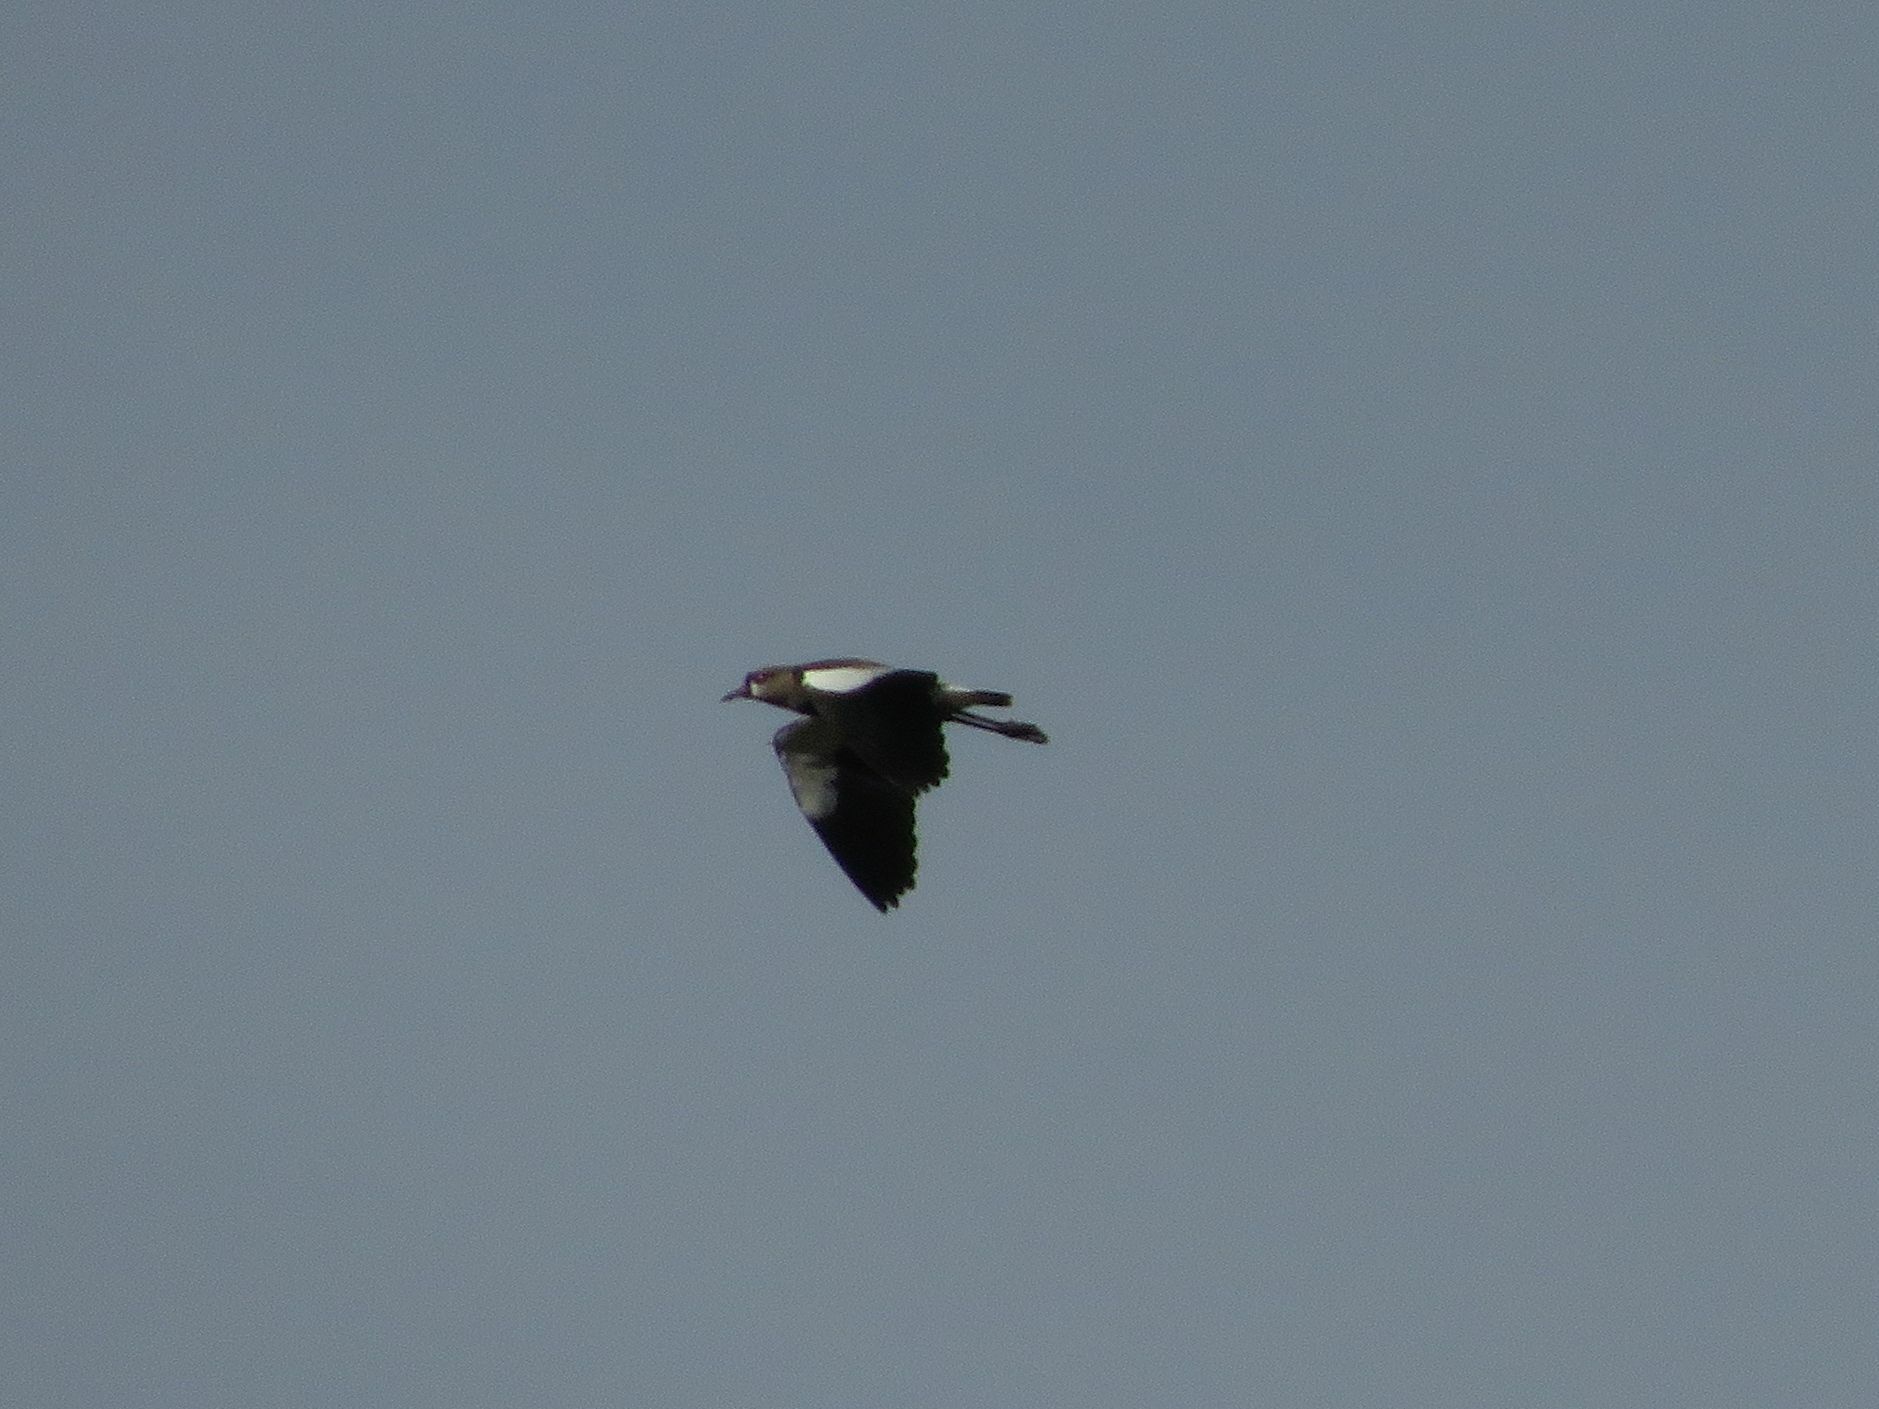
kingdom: Animalia
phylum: Chordata
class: Aves
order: Charadriiformes
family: Charadriidae
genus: Vanellus
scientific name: Vanellus chilensis
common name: Southern lapwing
